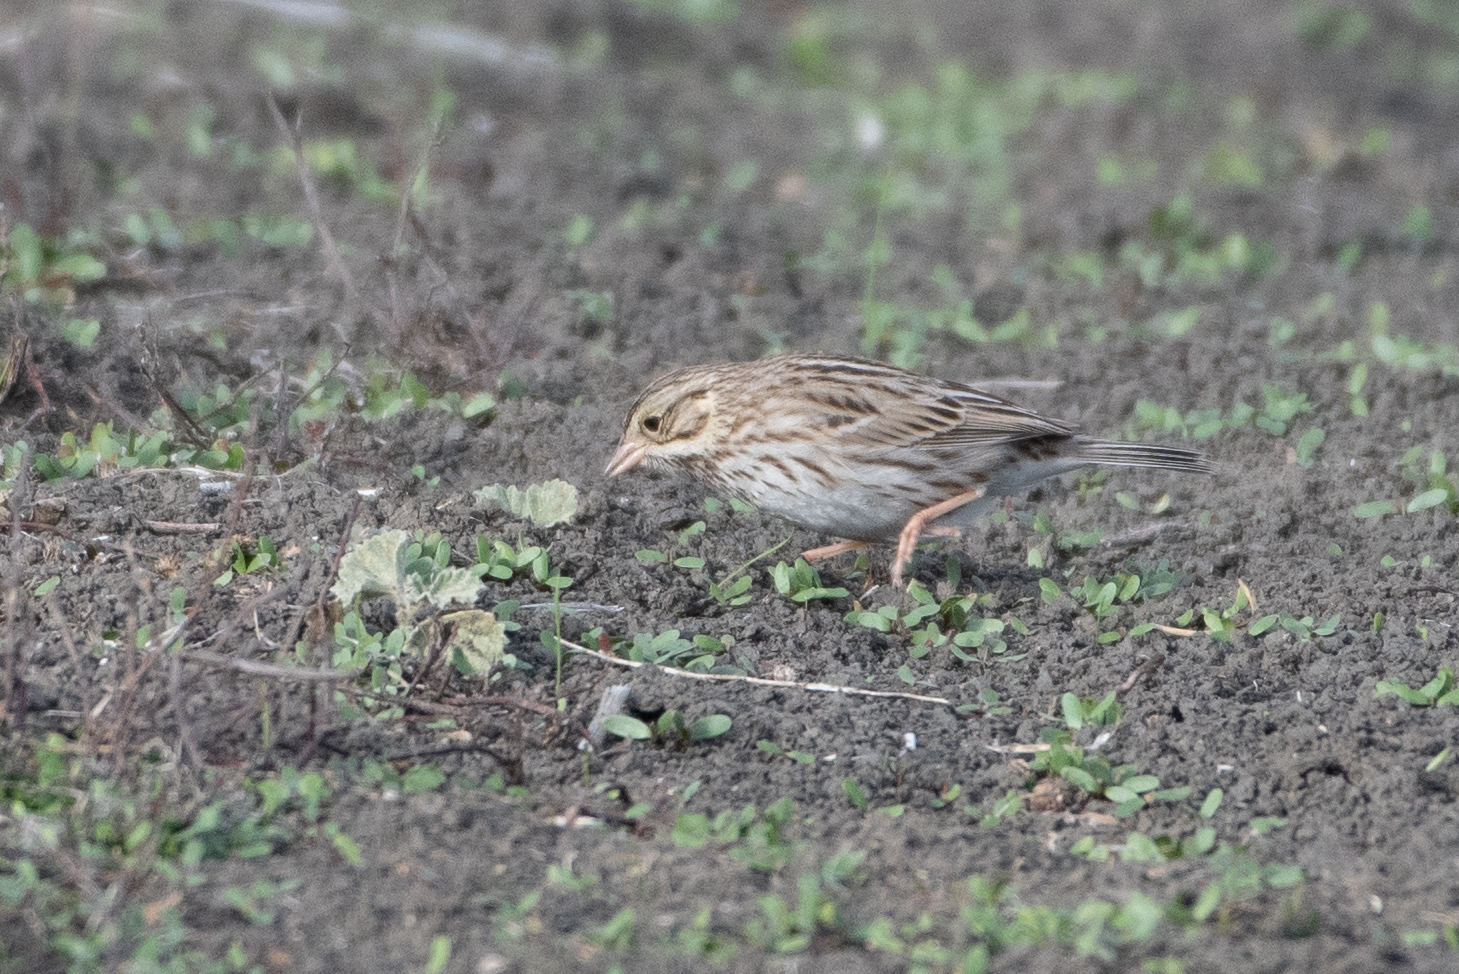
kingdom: Animalia
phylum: Chordata
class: Aves
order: Passeriformes
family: Passerellidae
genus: Passerculus
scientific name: Passerculus sandwichensis
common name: Savannah sparrow
